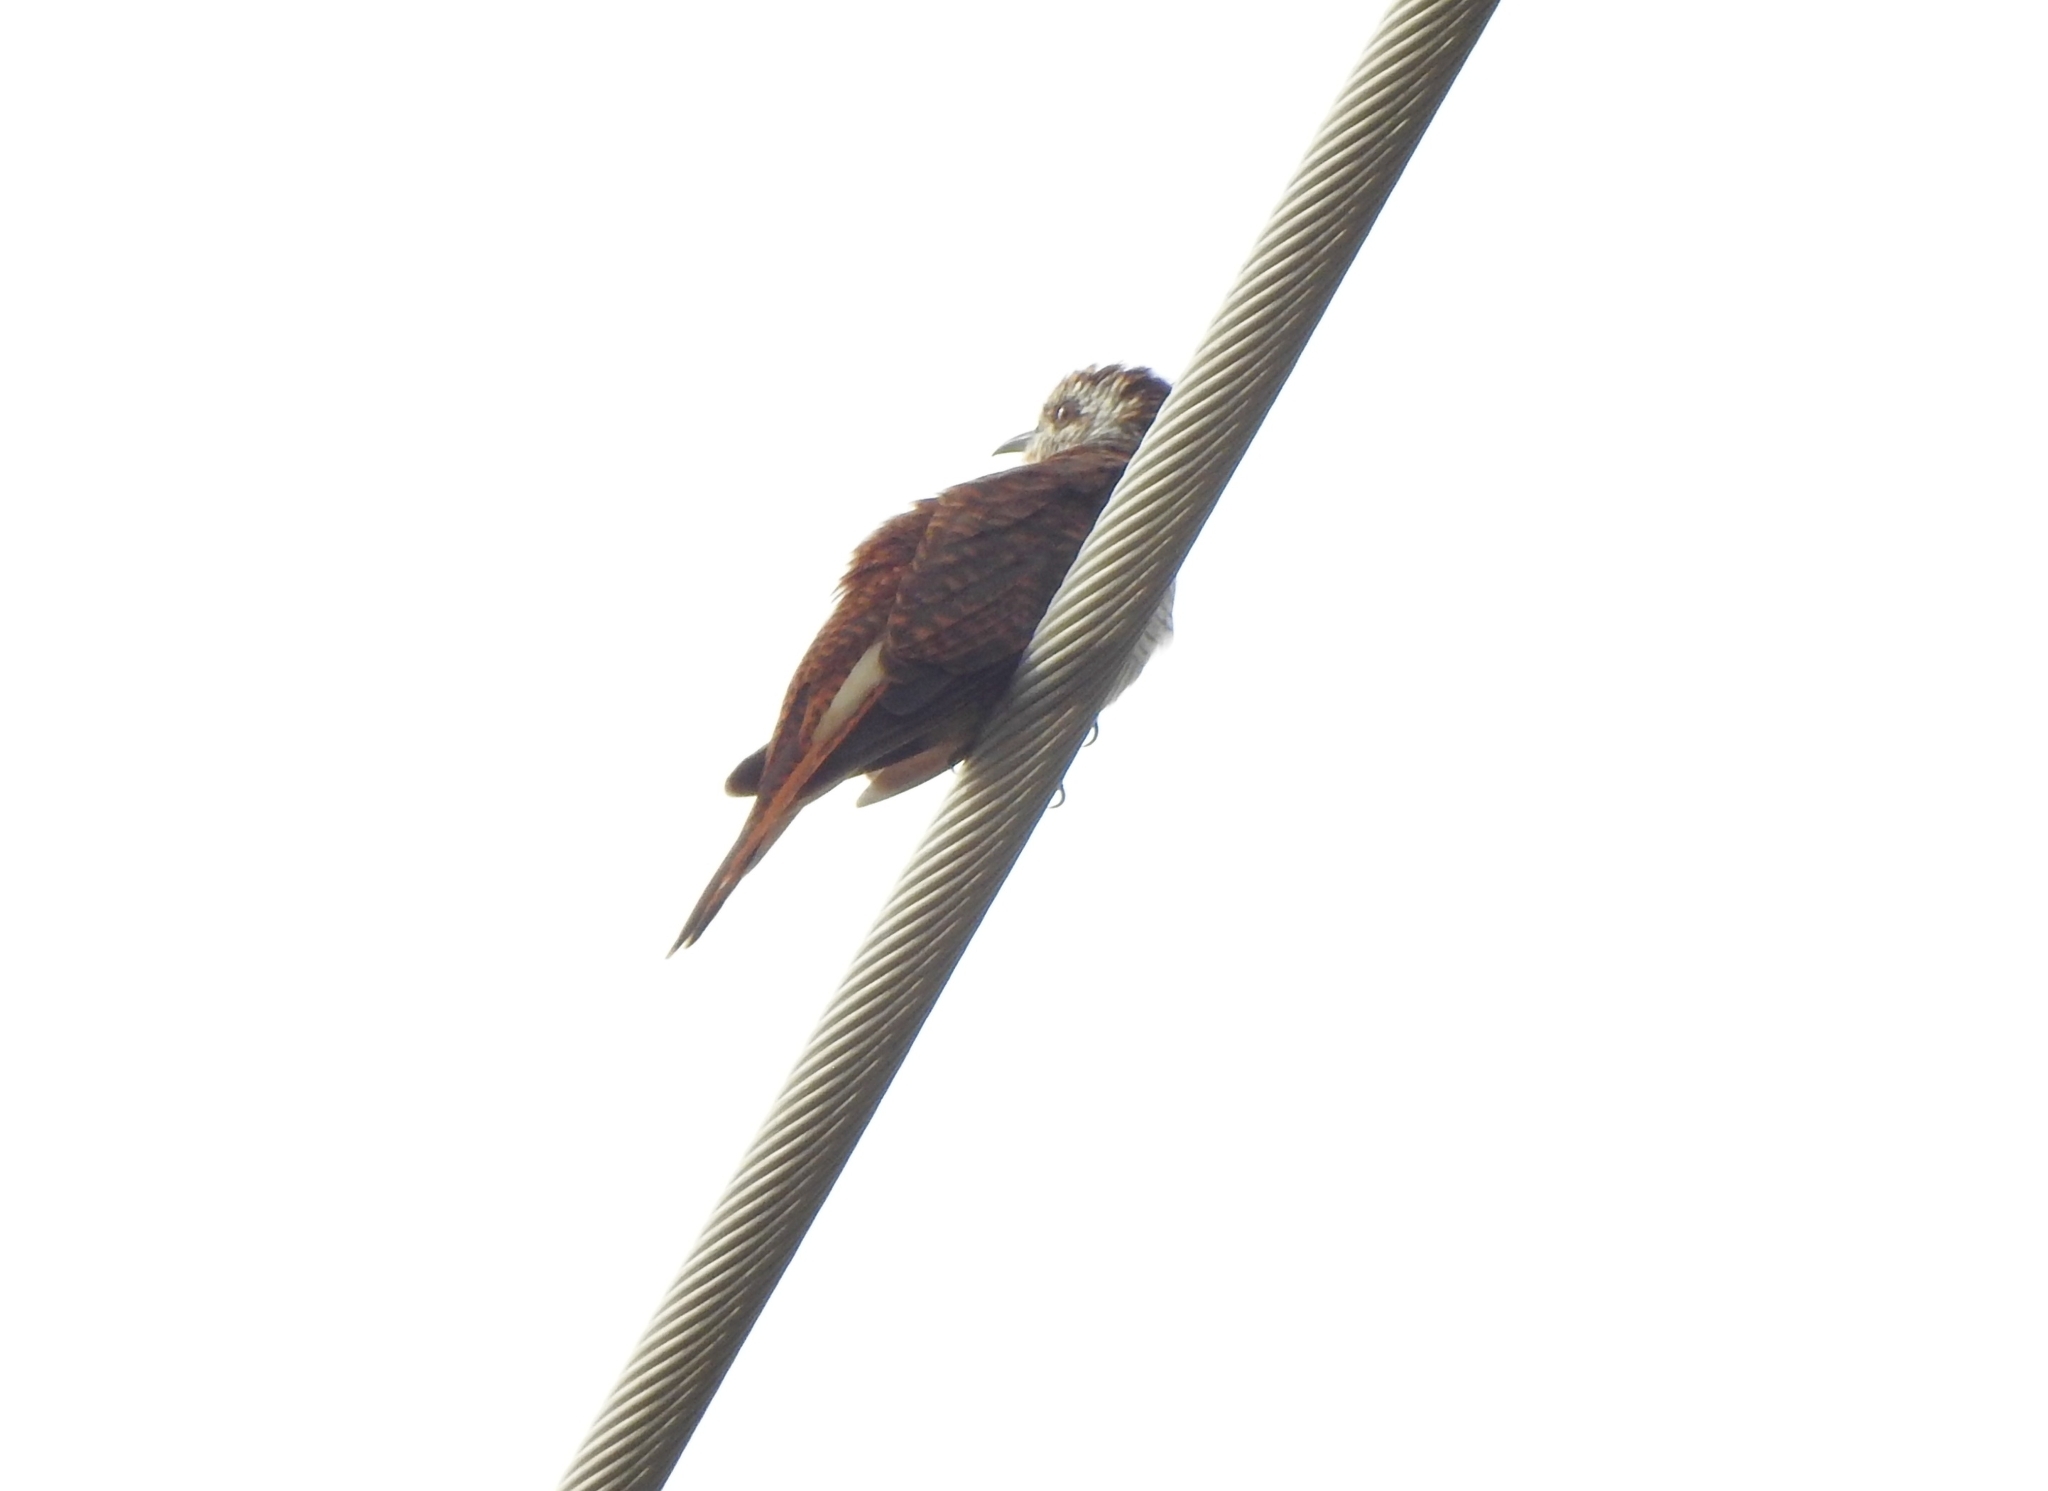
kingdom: Animalia
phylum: Chordata
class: Aves
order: Cuculiformes
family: Cuculidae
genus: Cacomantis
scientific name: Cacomantis sonneratii
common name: Banded bay cuckoo
